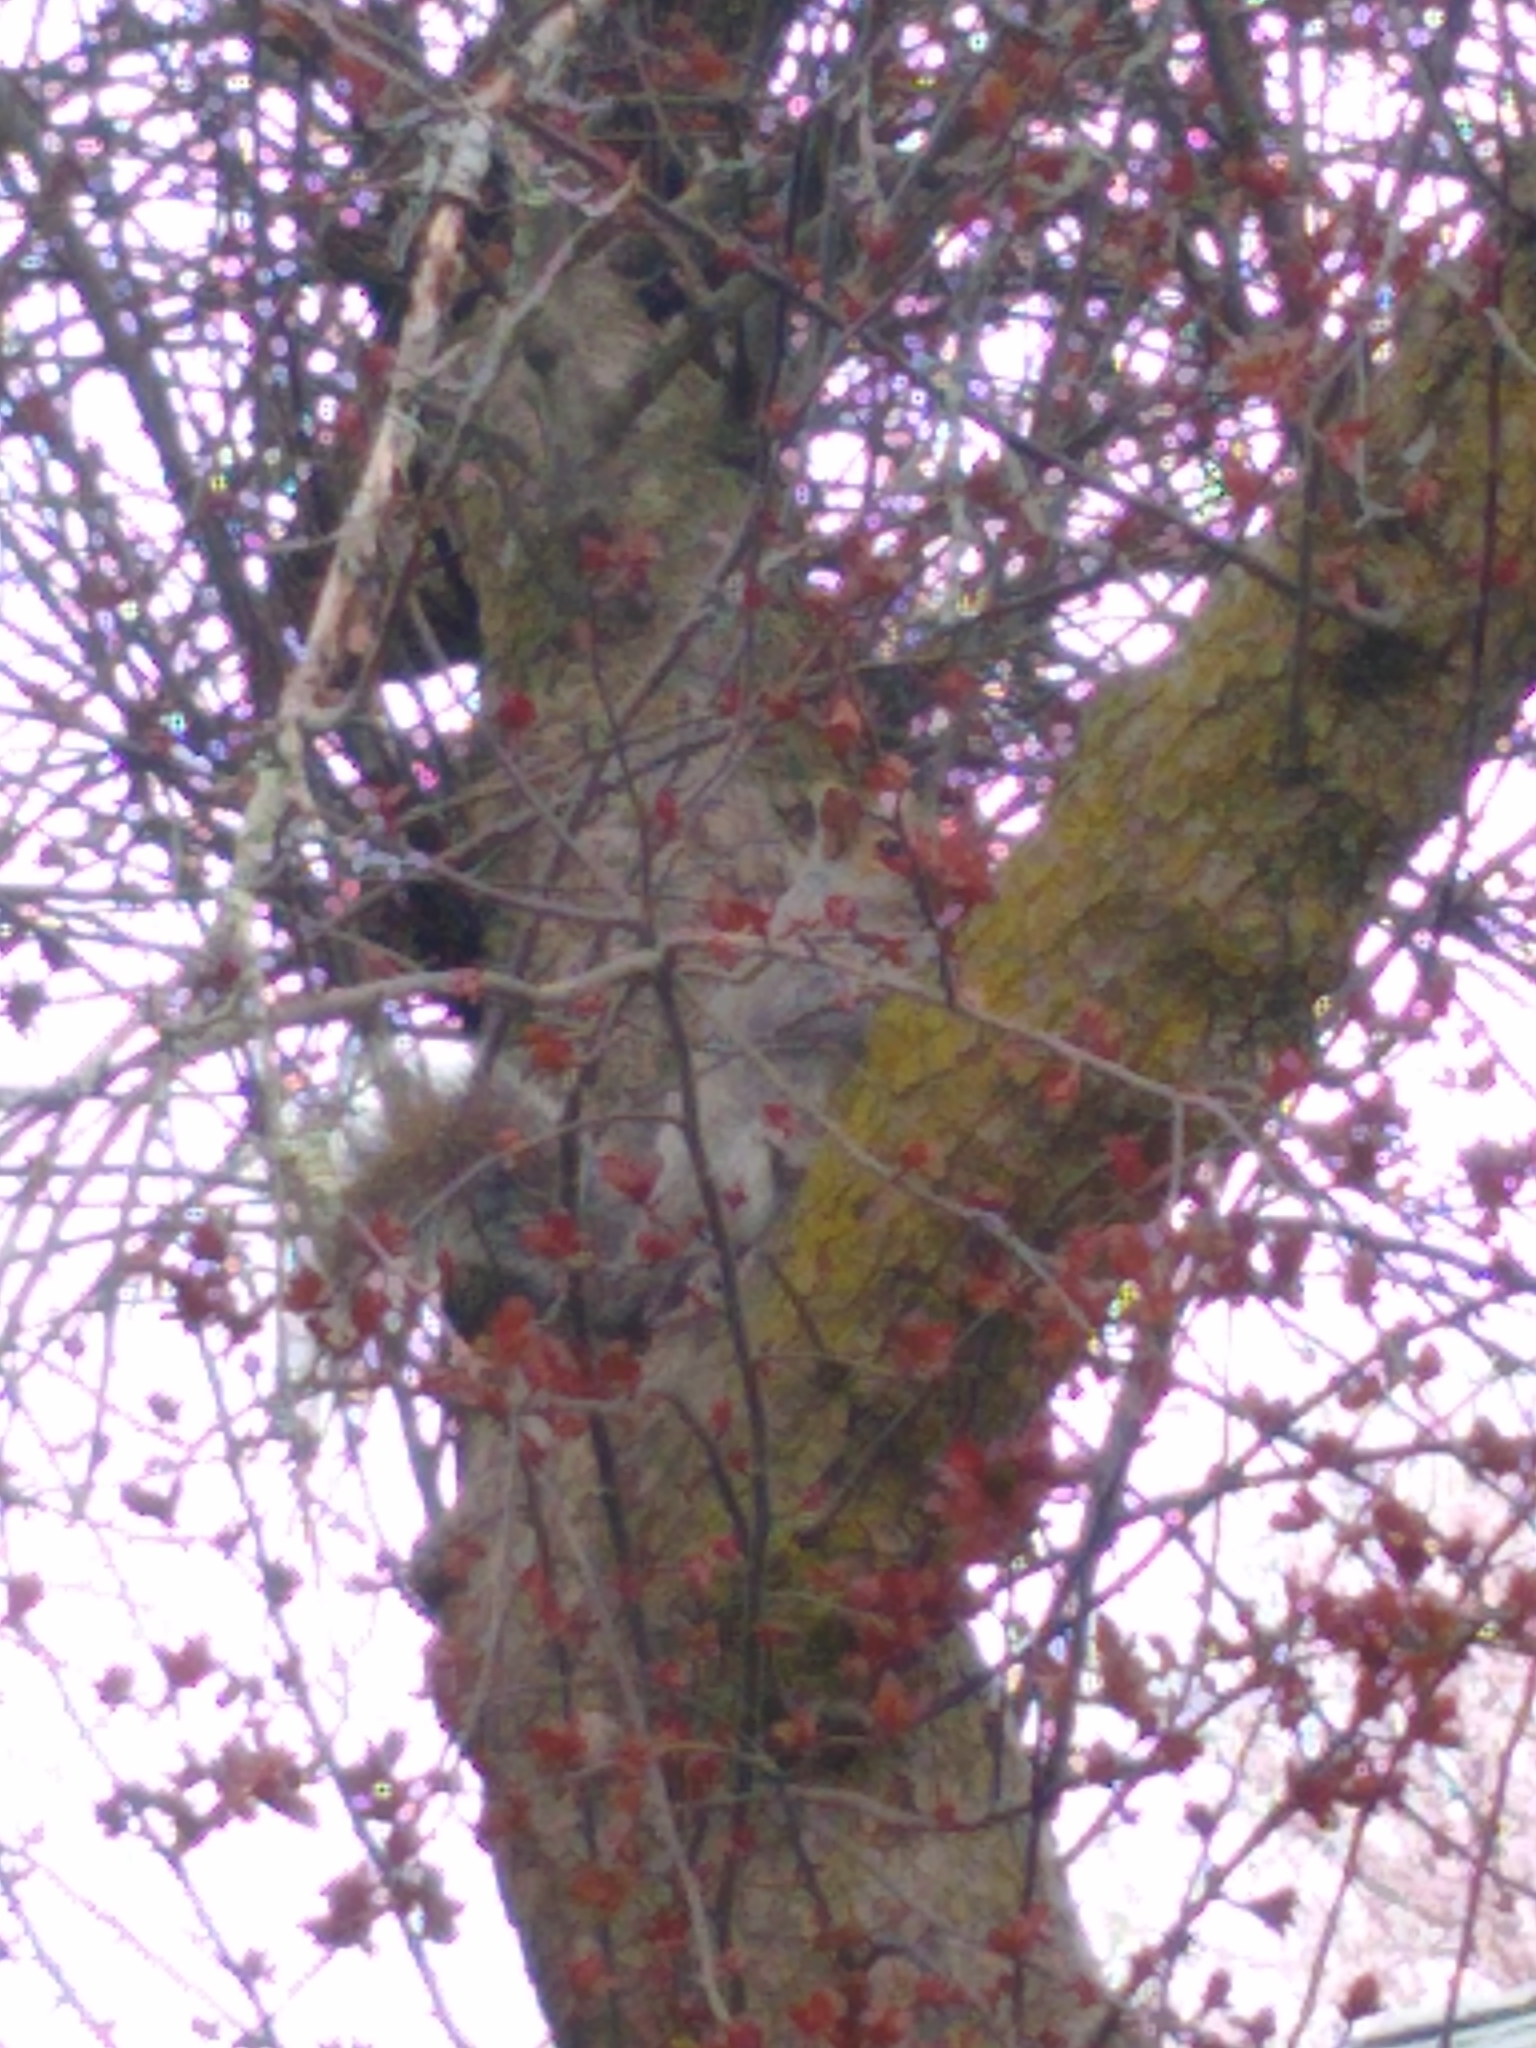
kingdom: Animalia
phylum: Chordata
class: Mammalia
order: Rodentia
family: Sciuridae
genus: Sciurus
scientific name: Sciurus carolinensis
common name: Eastern gray squirrel
